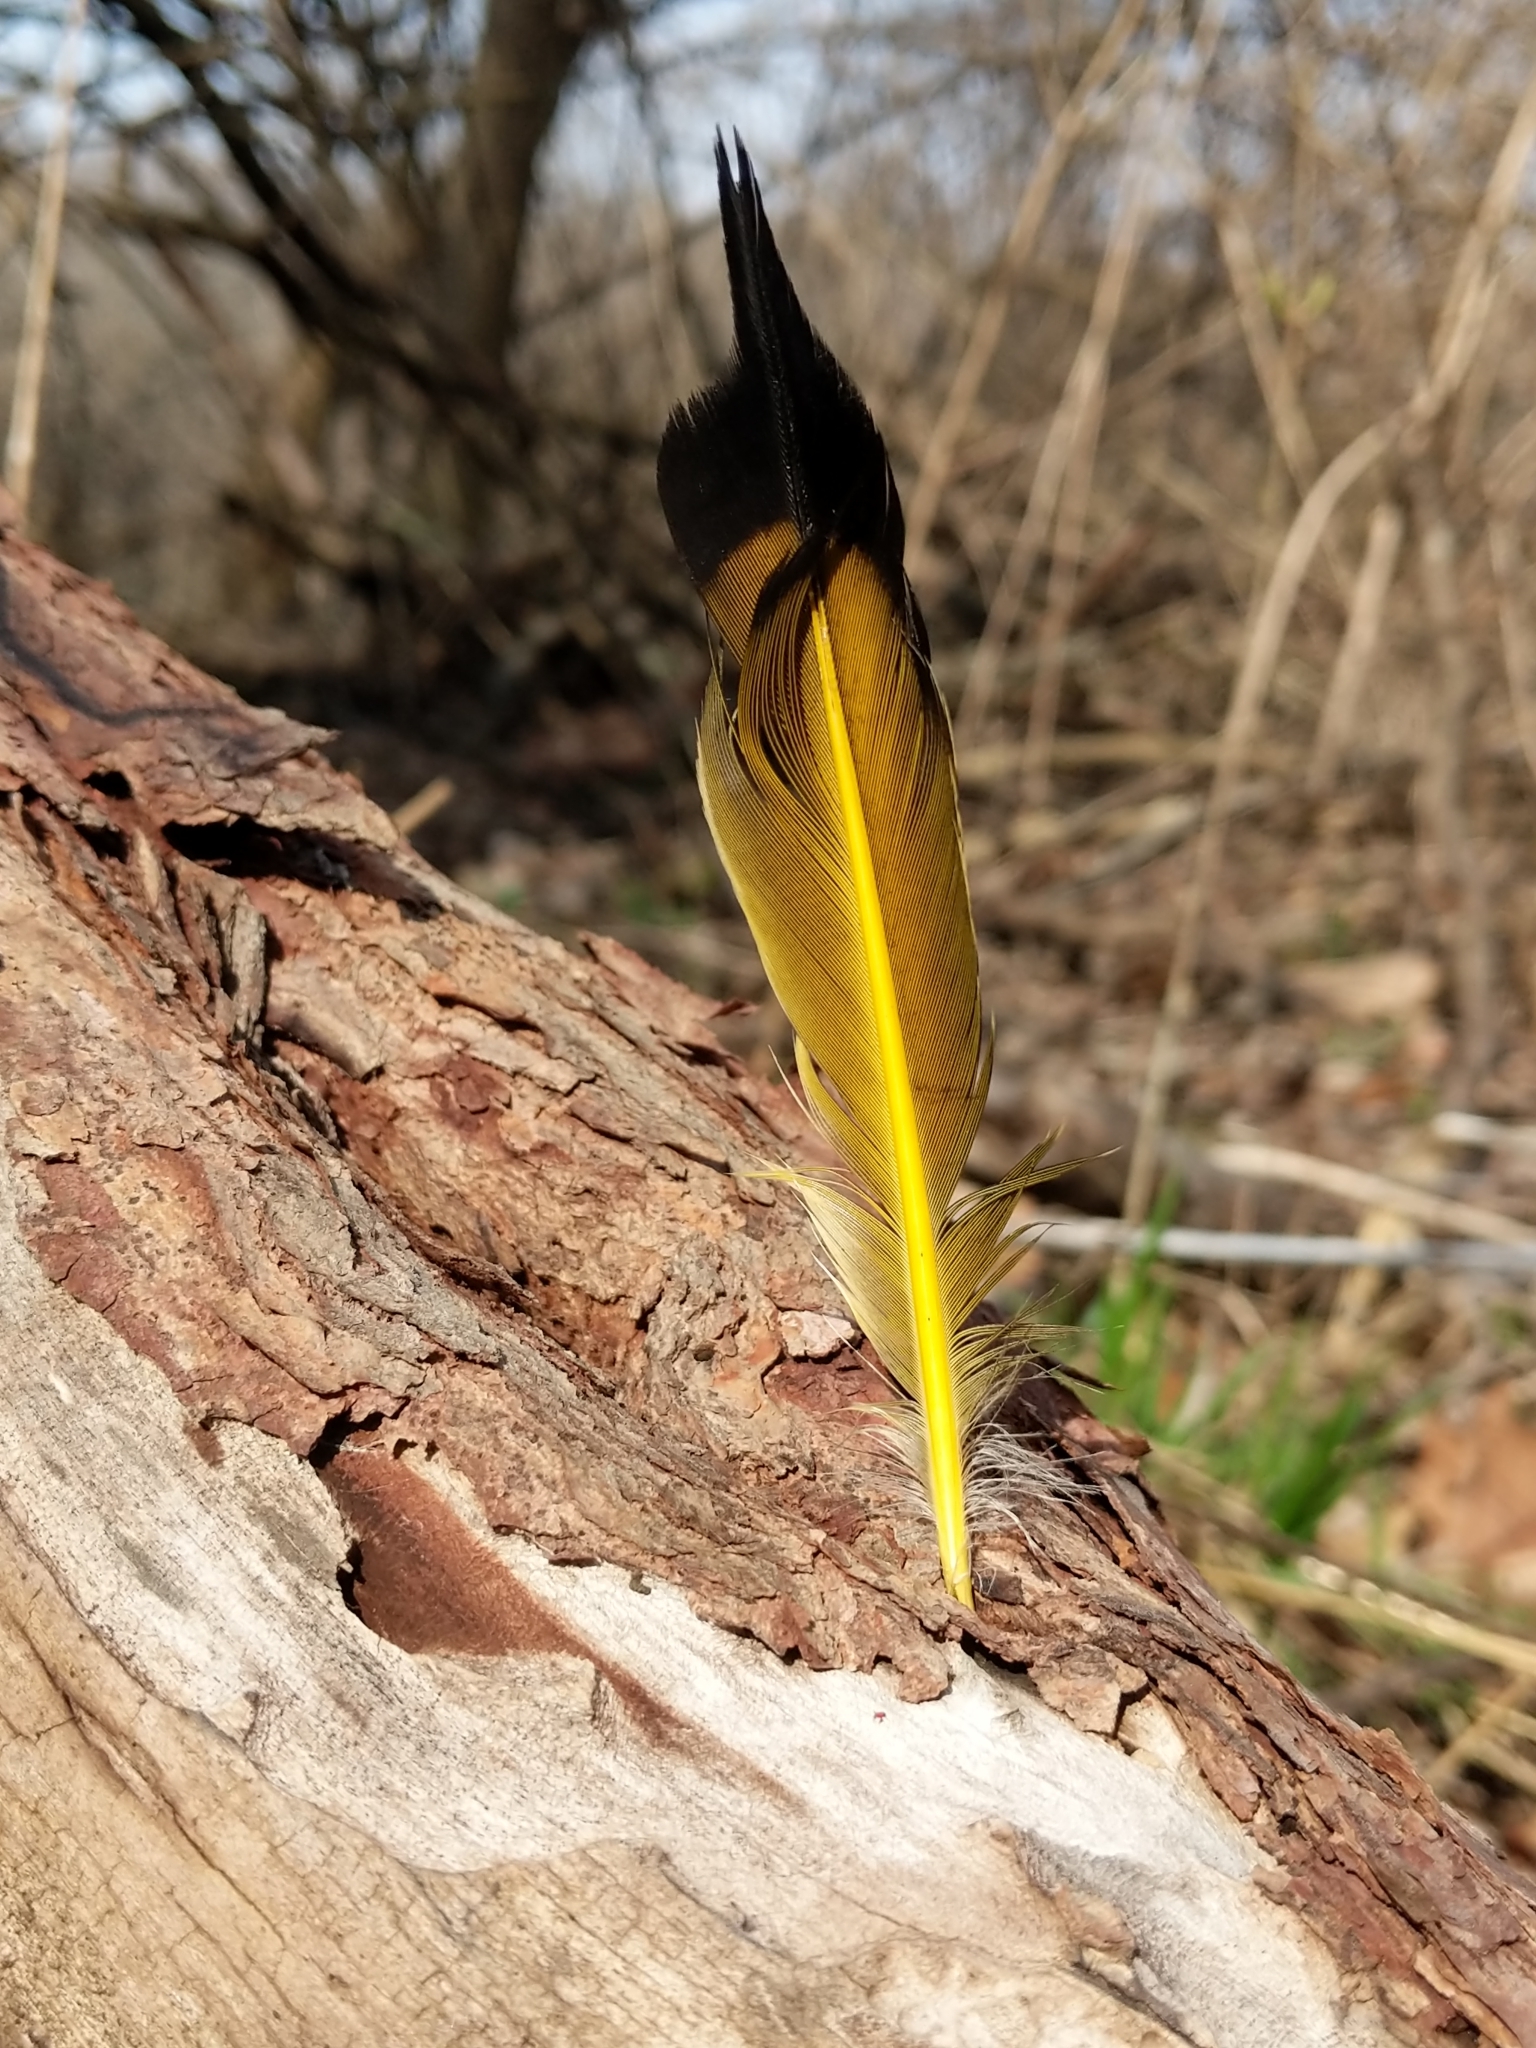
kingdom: Animalia
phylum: Chordata
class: Aves
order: Piciformes
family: Picidae
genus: Colaptes
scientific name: Colaptes auratus
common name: Northern flicker
